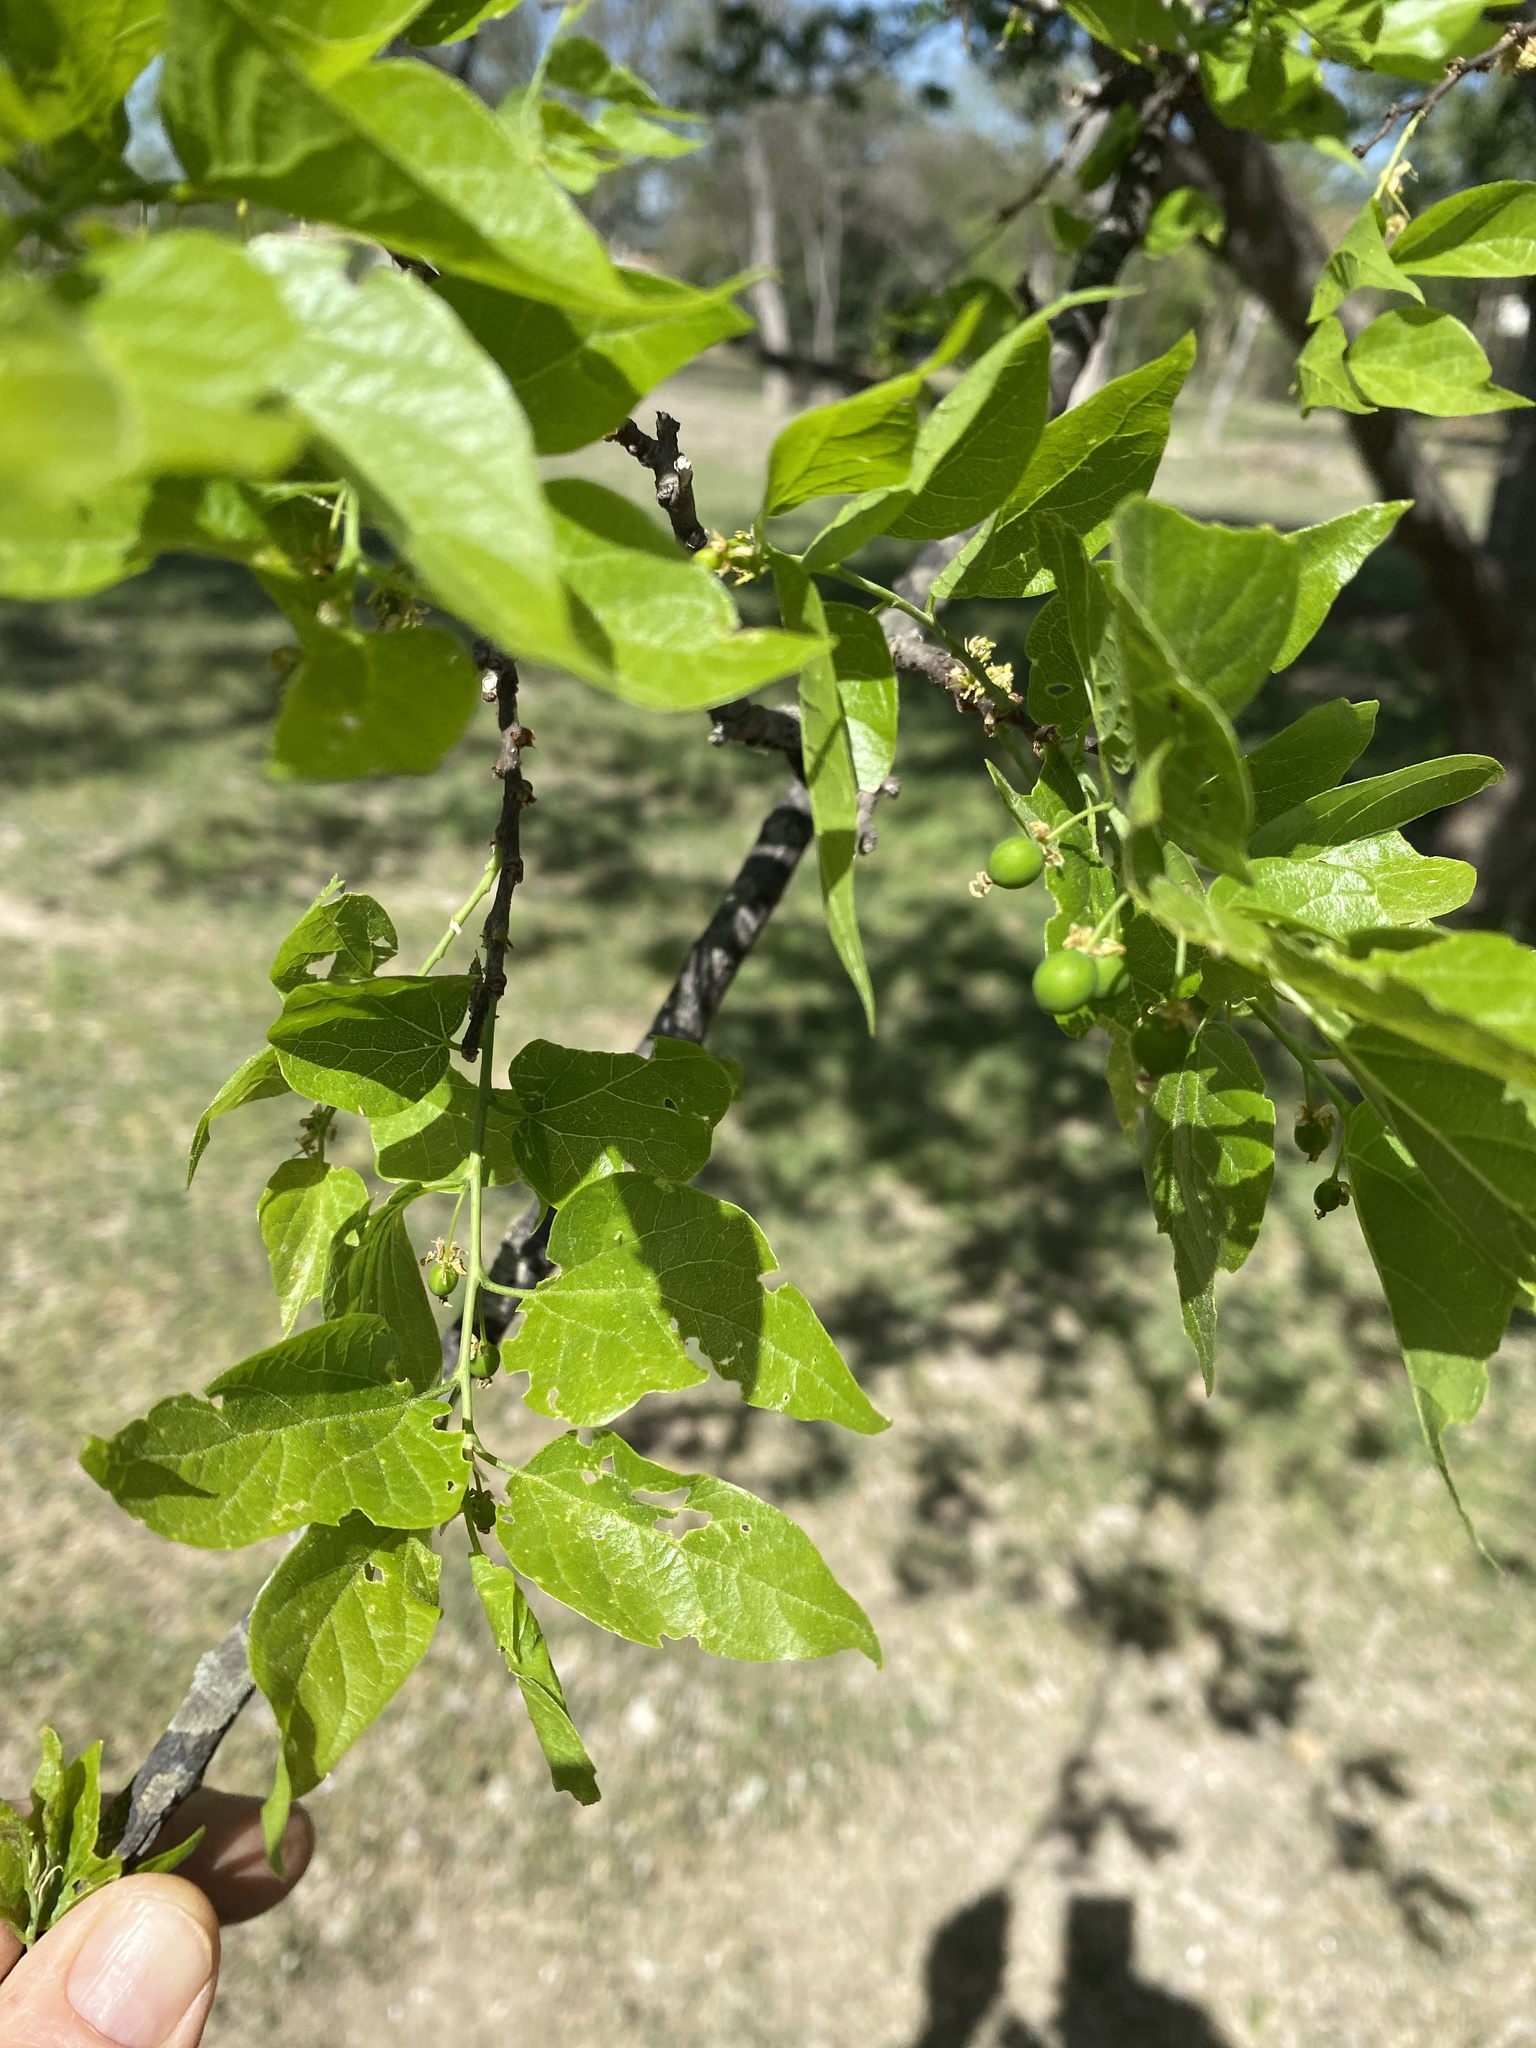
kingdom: Plantae
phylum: Tracheophyta
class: Magnoliopsida
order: Rosales
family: Cannabaceae
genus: Celtis
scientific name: Celtis laevigata
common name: Sugarberry
